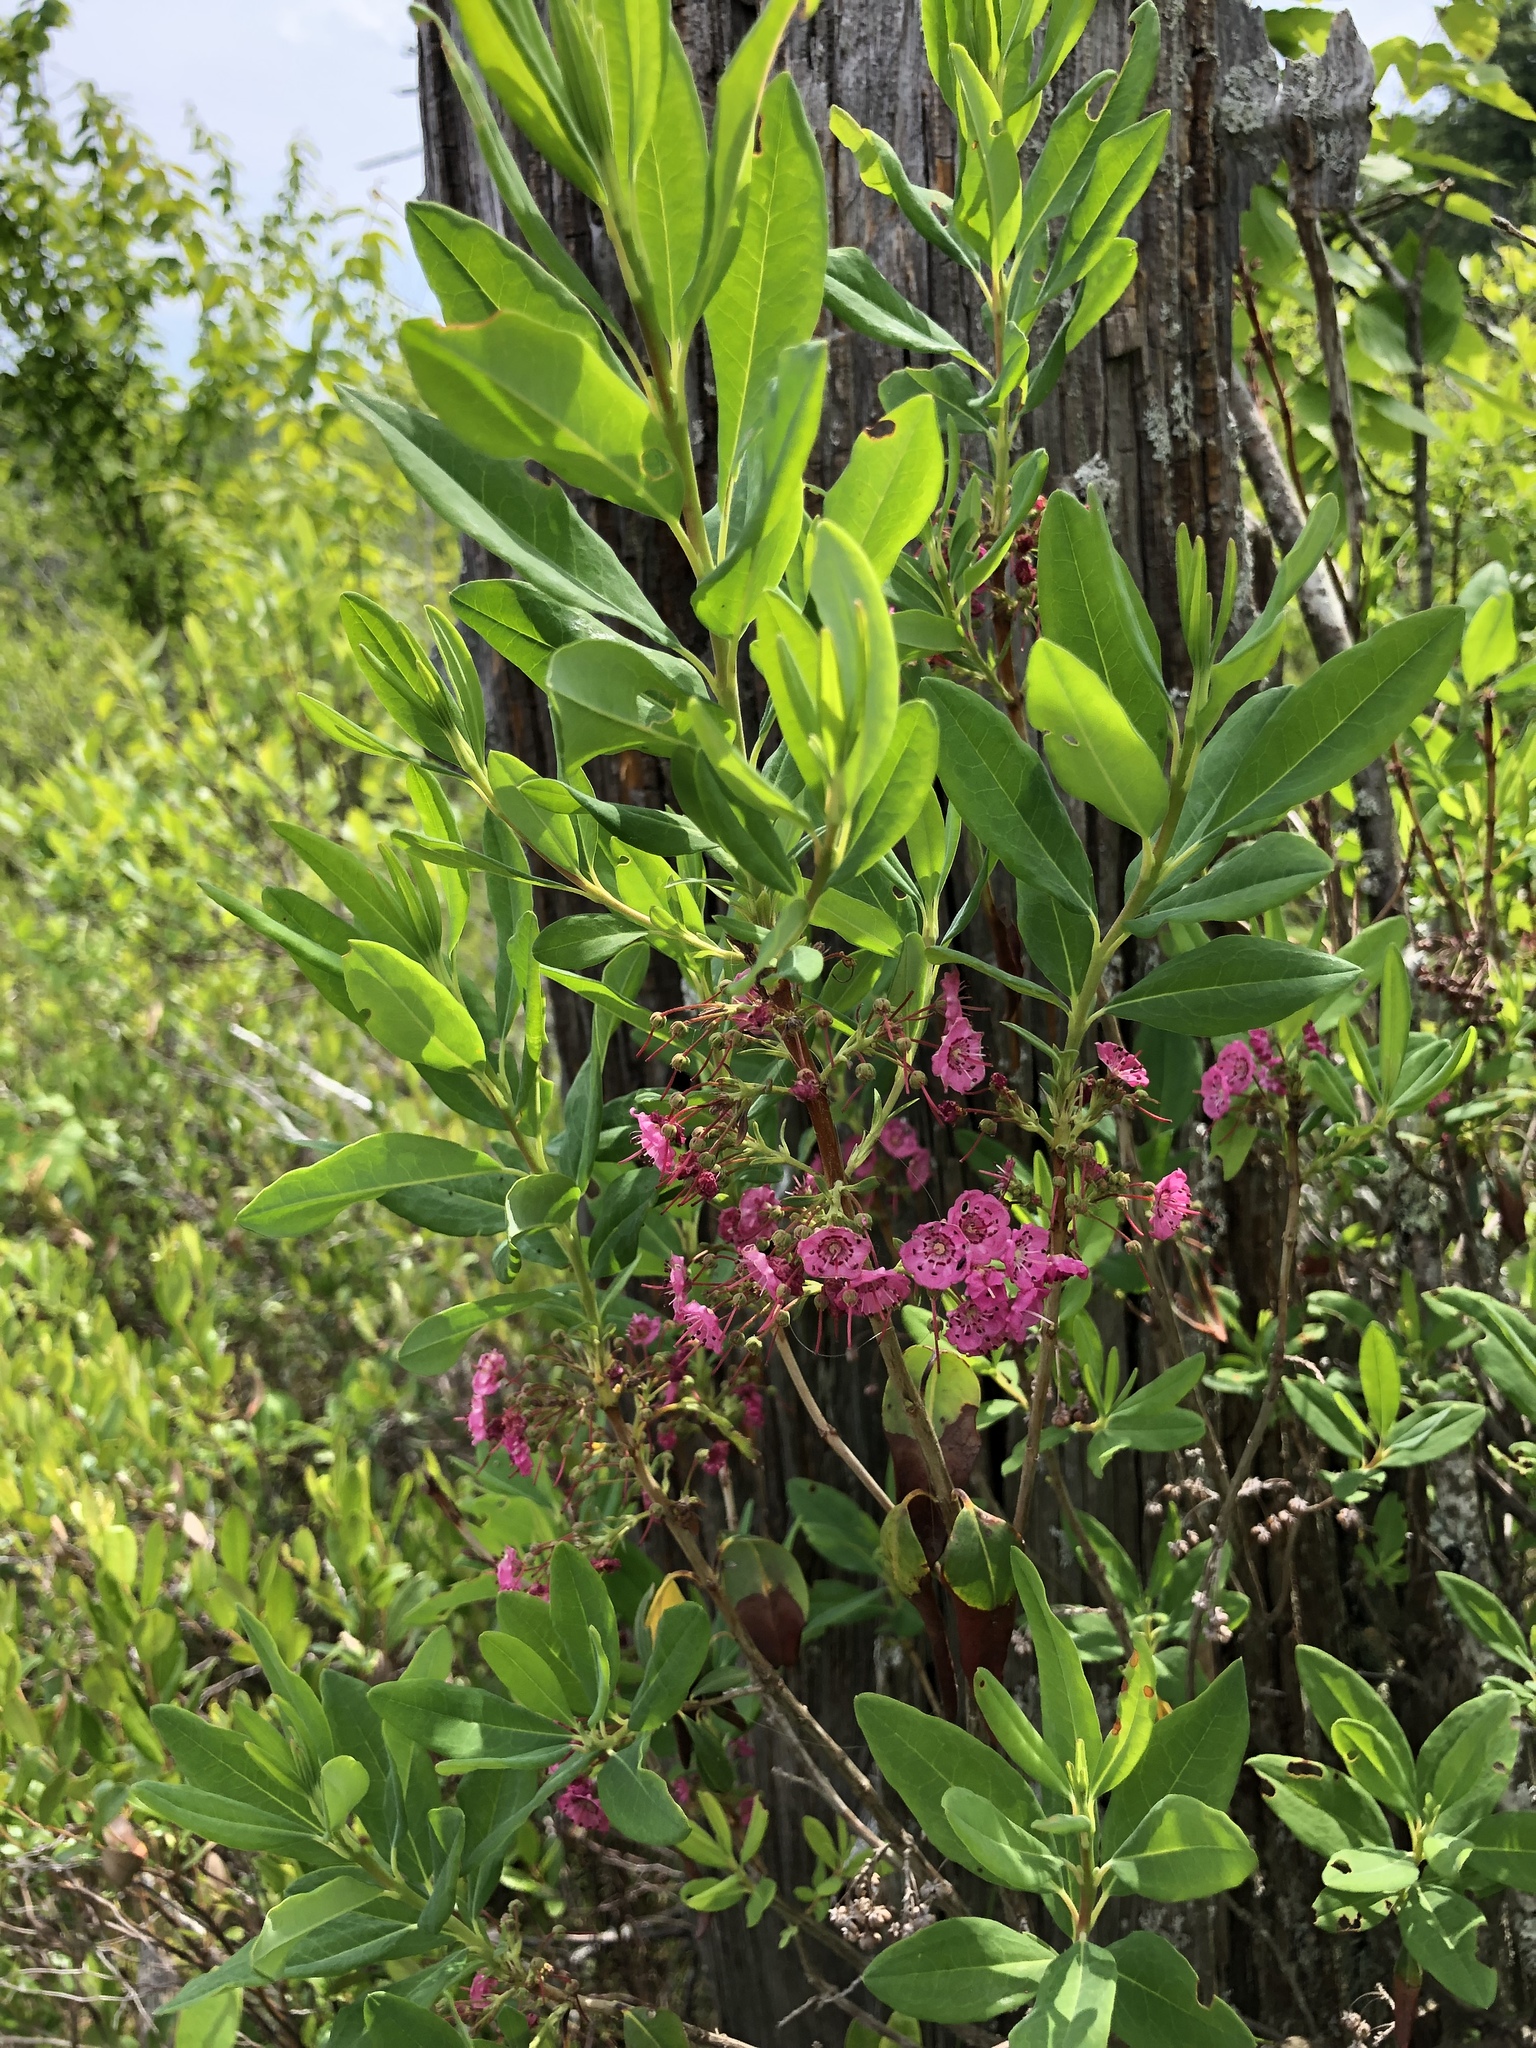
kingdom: Plantae
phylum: Tracheophyta
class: Magnoliopsida
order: Ericales
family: Ericaceae
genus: Kalmia
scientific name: Kalmia angustifolia
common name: Sheep-laurel
